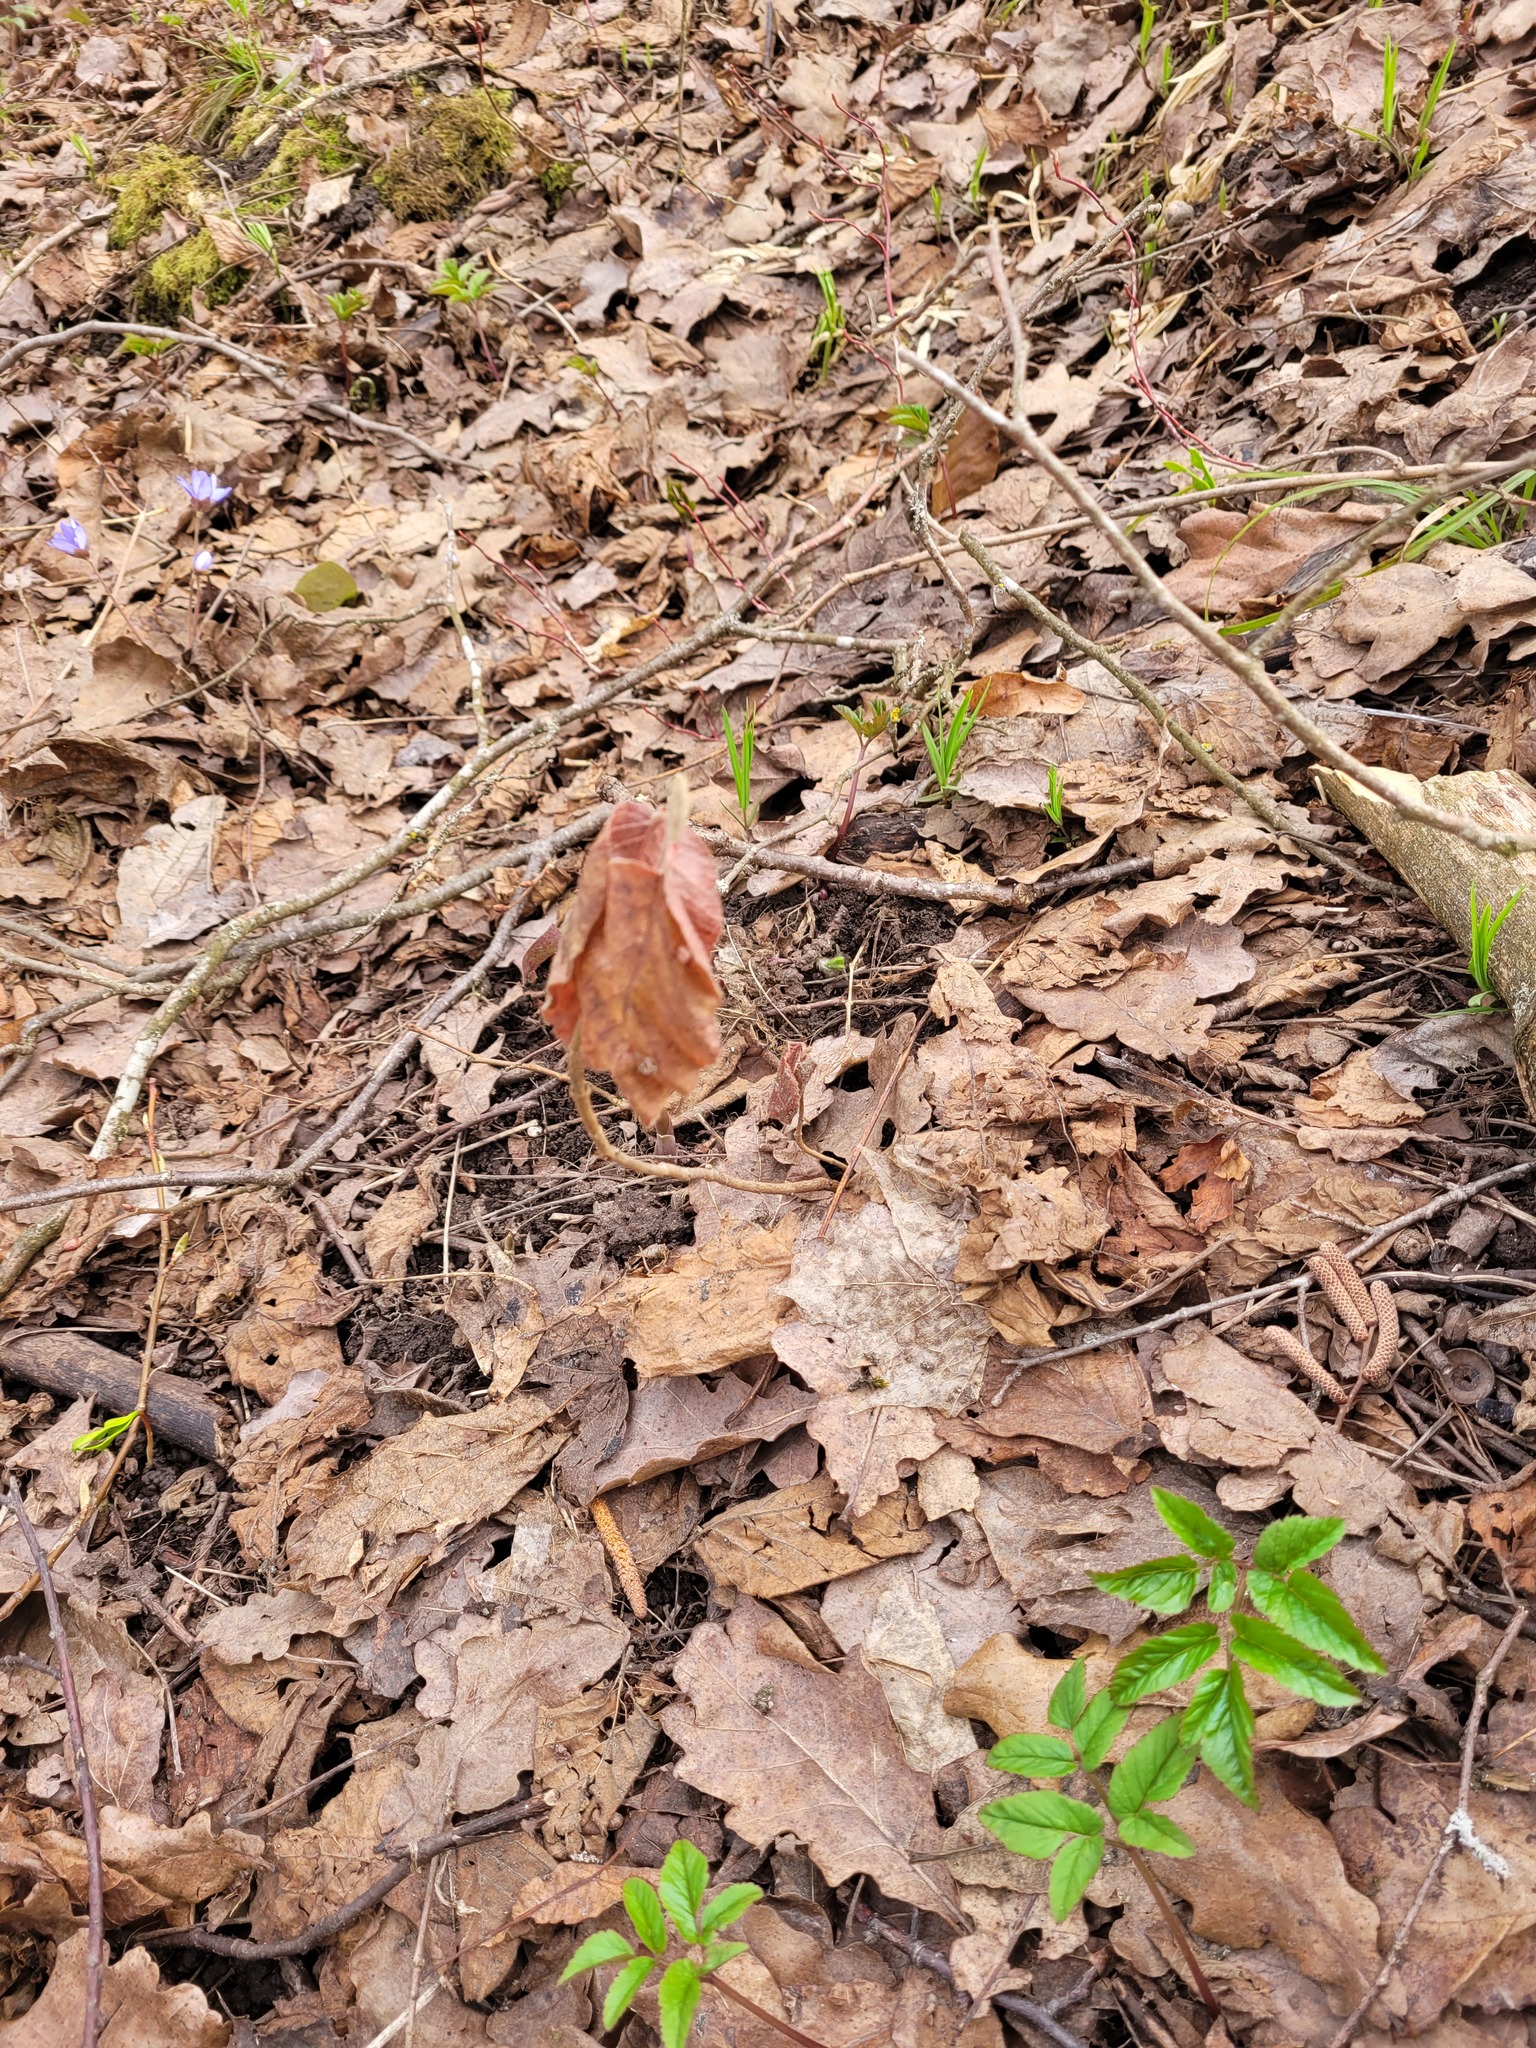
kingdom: Plantae
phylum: Tracheophyta
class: Magnoliopsida
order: Dipsacales
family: Viburnaceae
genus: Viburnum
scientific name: Viburnum lantana
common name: Wayfaring tree
